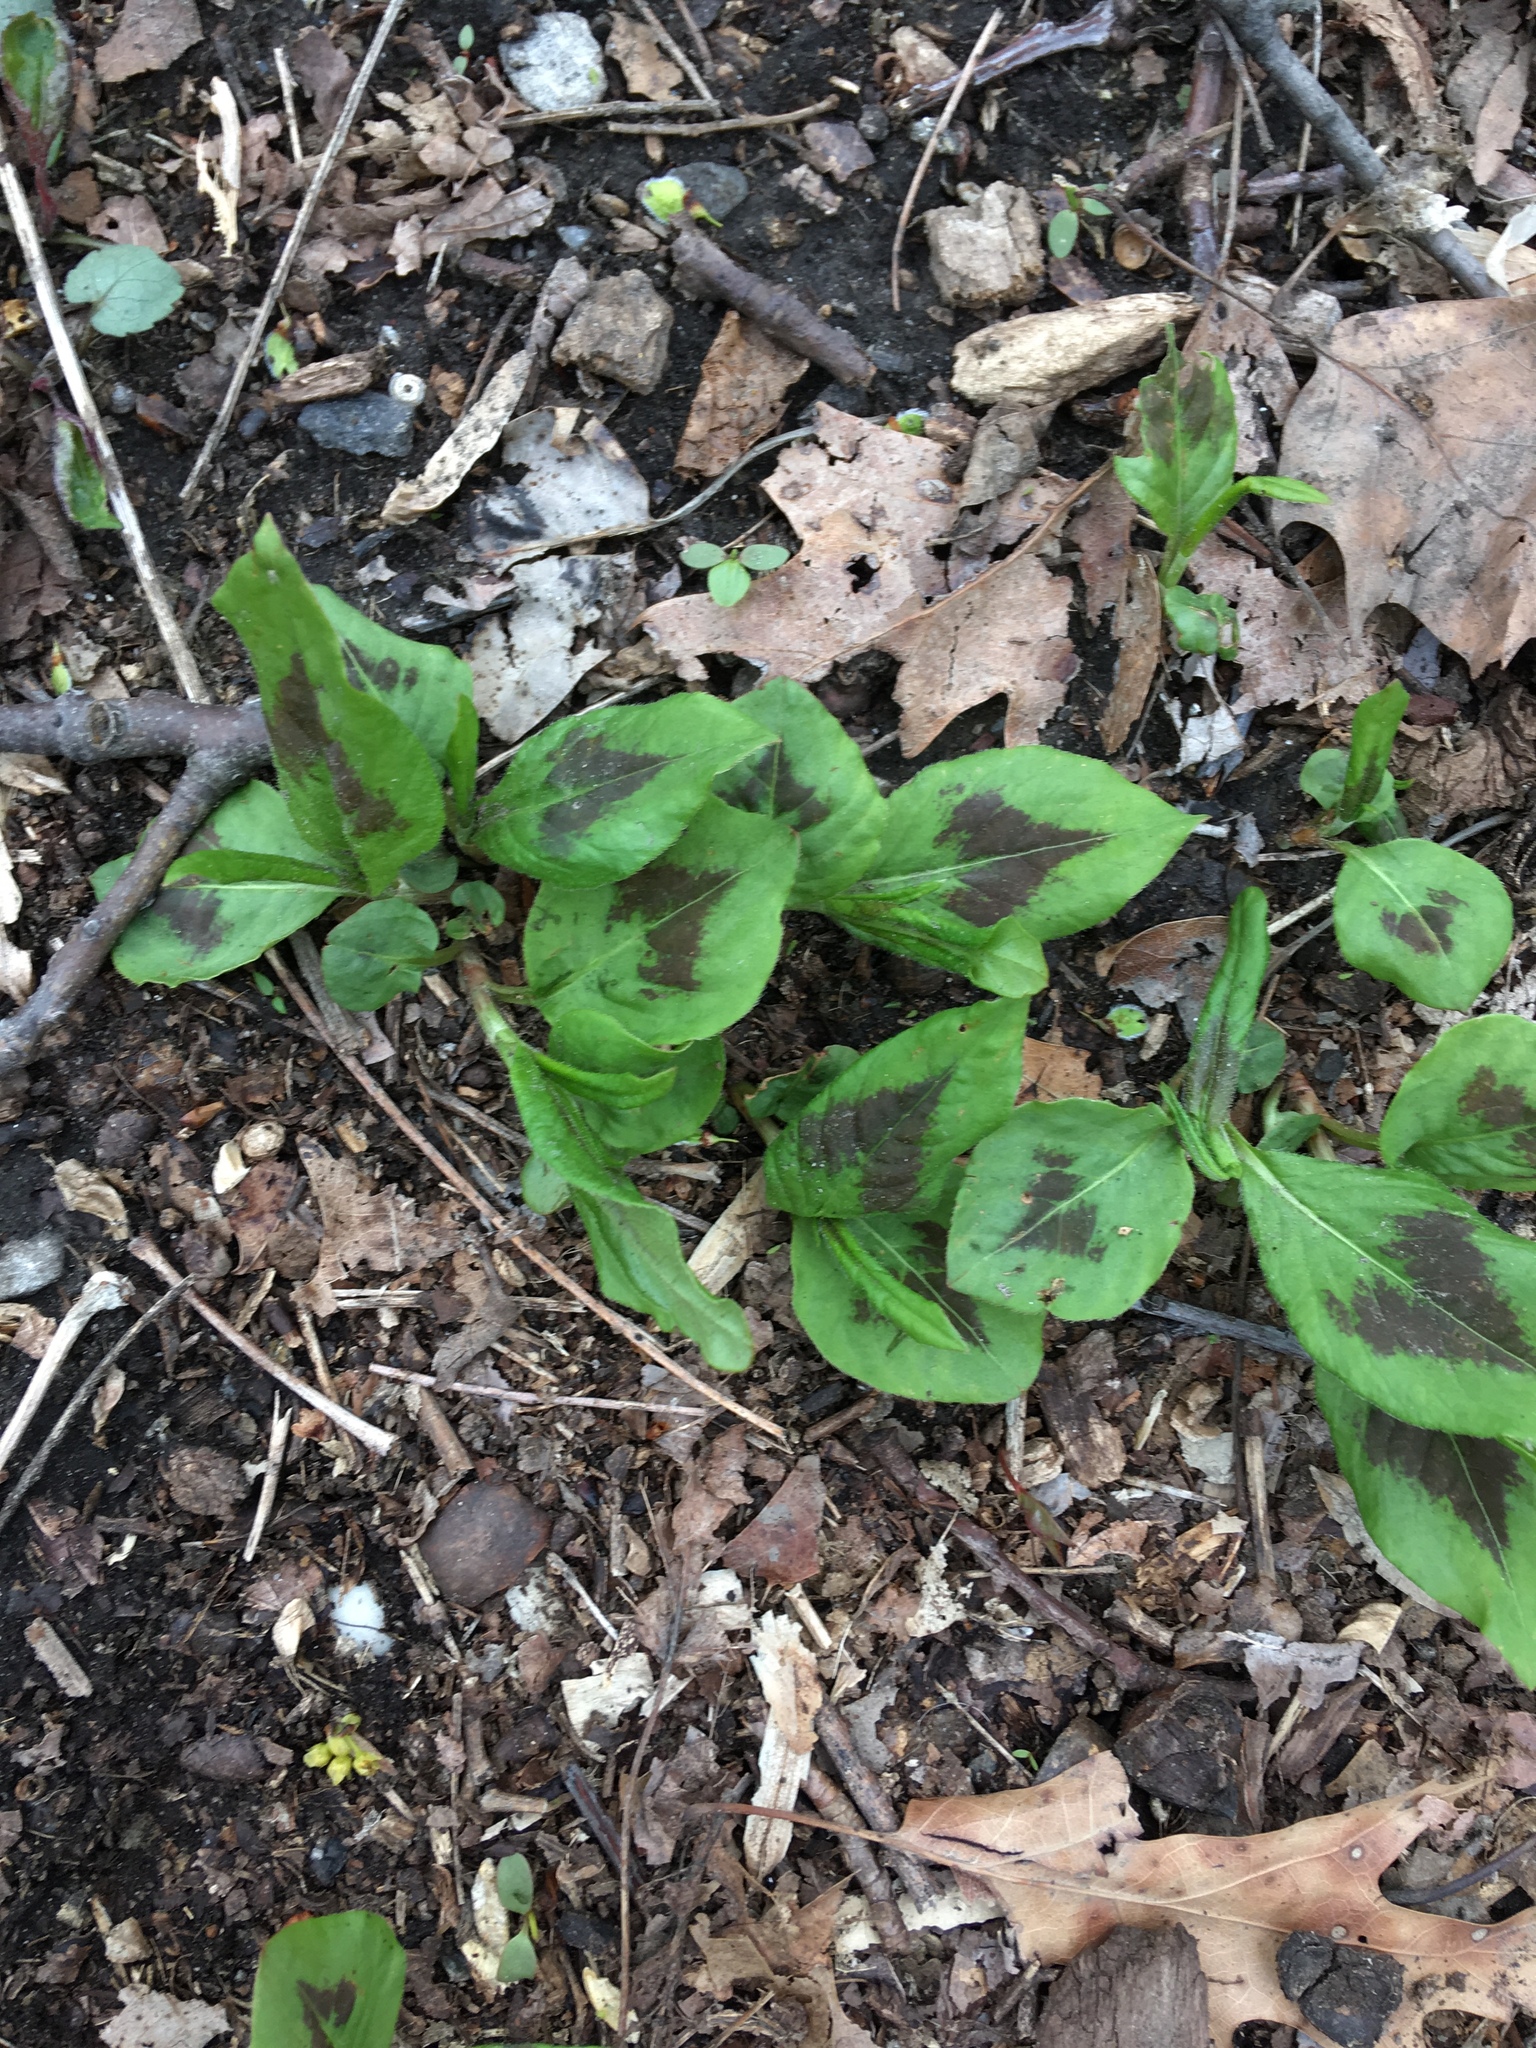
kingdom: Plantae
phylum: Tracheophyta
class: Magnoliopsida
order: Caryophyllales
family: Polygonaceae
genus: Persicaria
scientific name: Persicaria virginiana
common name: Jumpseed
